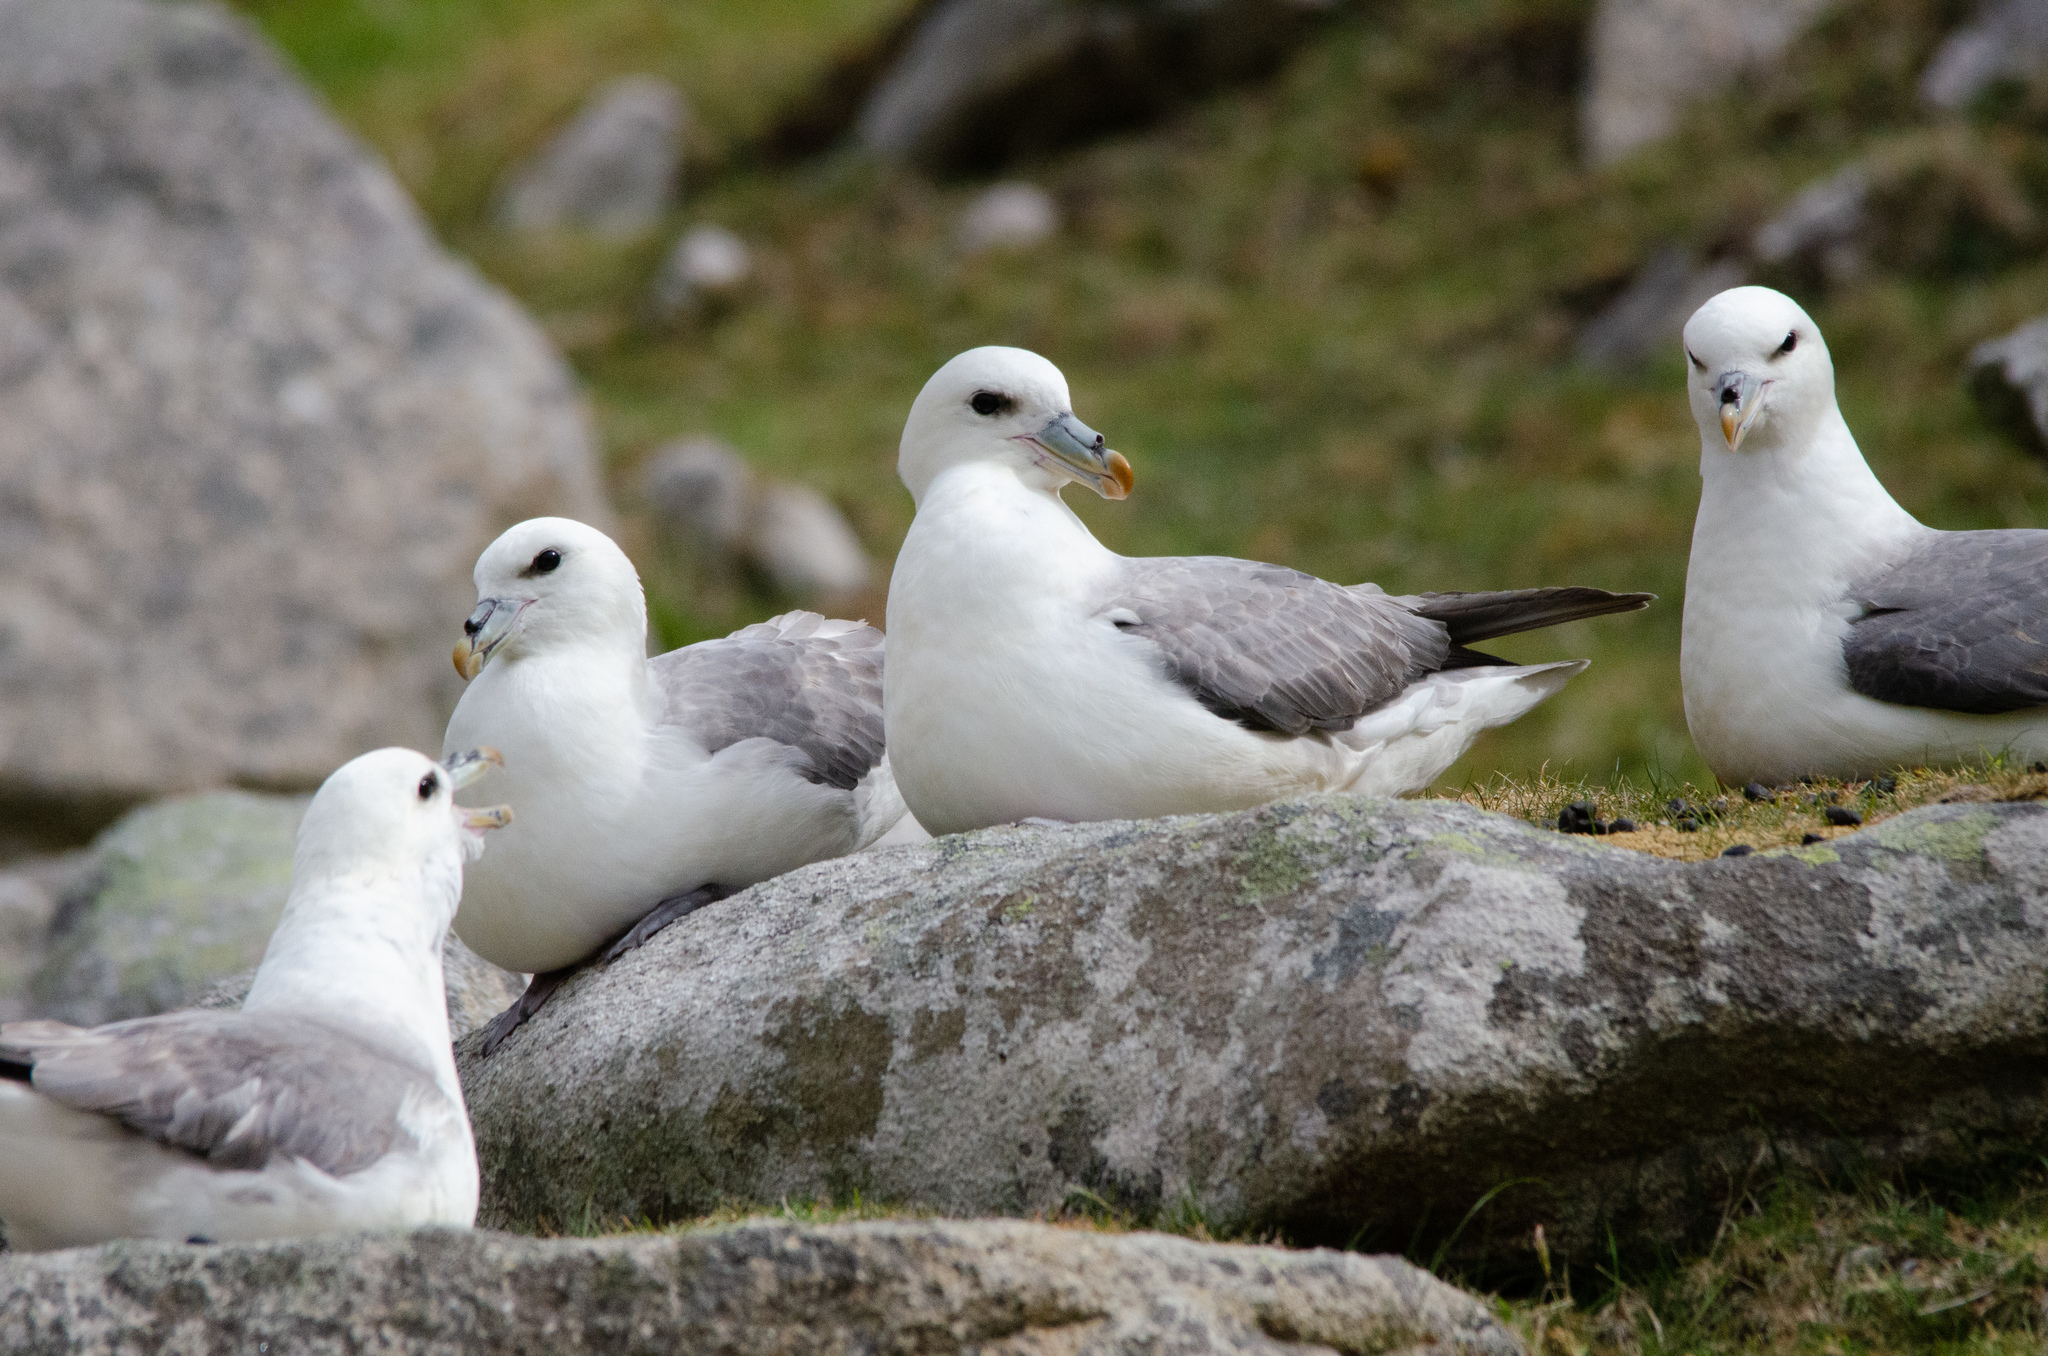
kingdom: Animalia
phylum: Chordata
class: Aves
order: Procellariiformes
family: Procellariidae
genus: Fulmarus
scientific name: Fulmarus glacialis
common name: Northern fulmar
